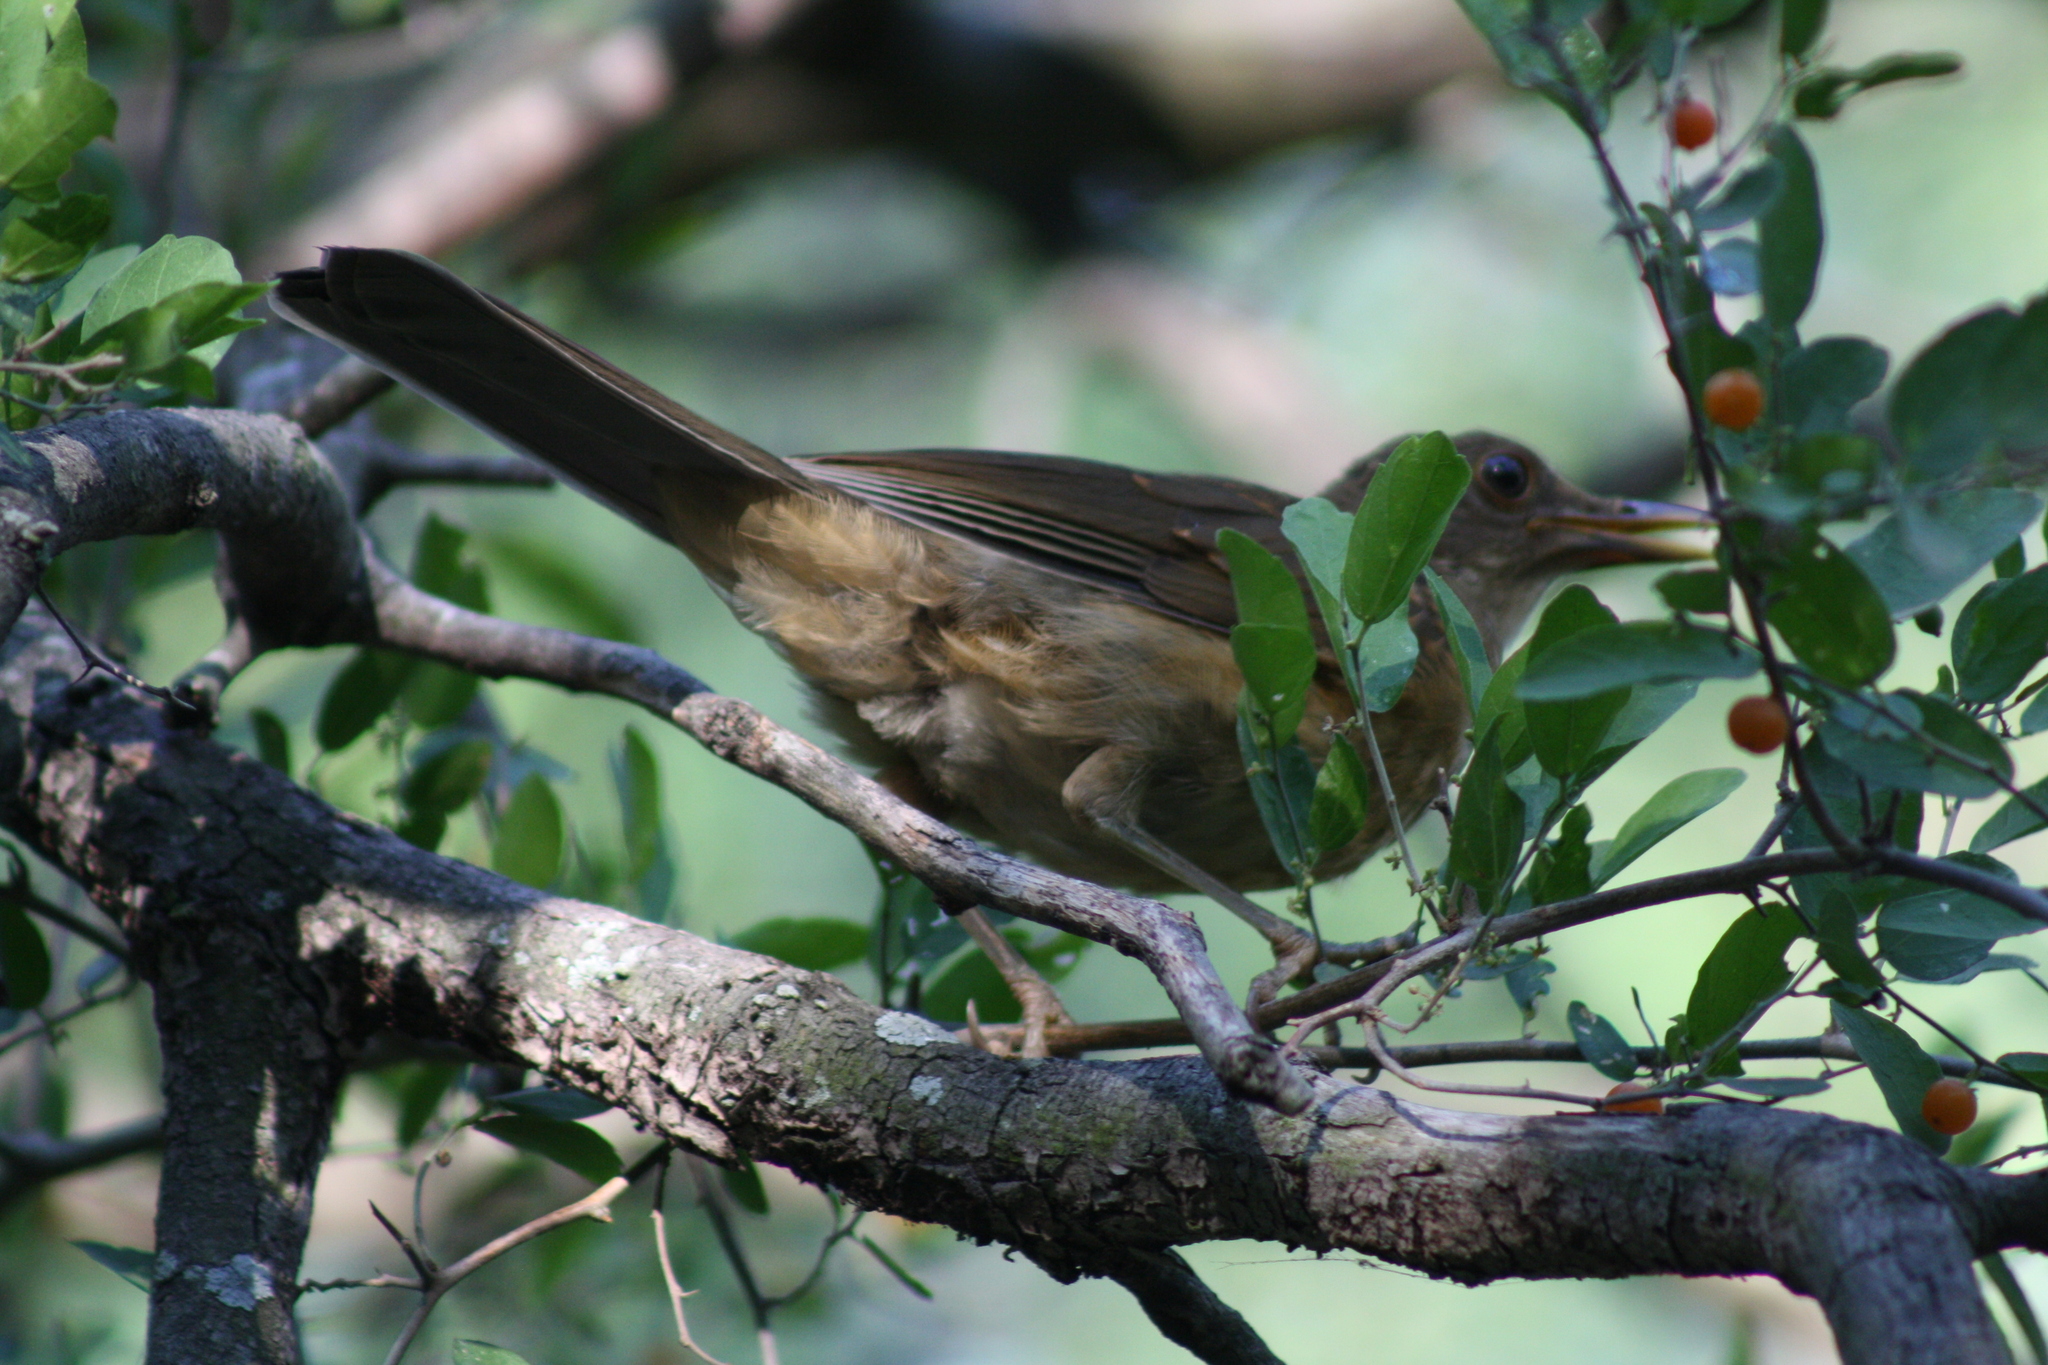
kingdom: Animalia
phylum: Chordata
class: Aves
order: Passeriformes
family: Turdidae
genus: Turdus
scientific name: Turdus grayi
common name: Clay-colored thrush
